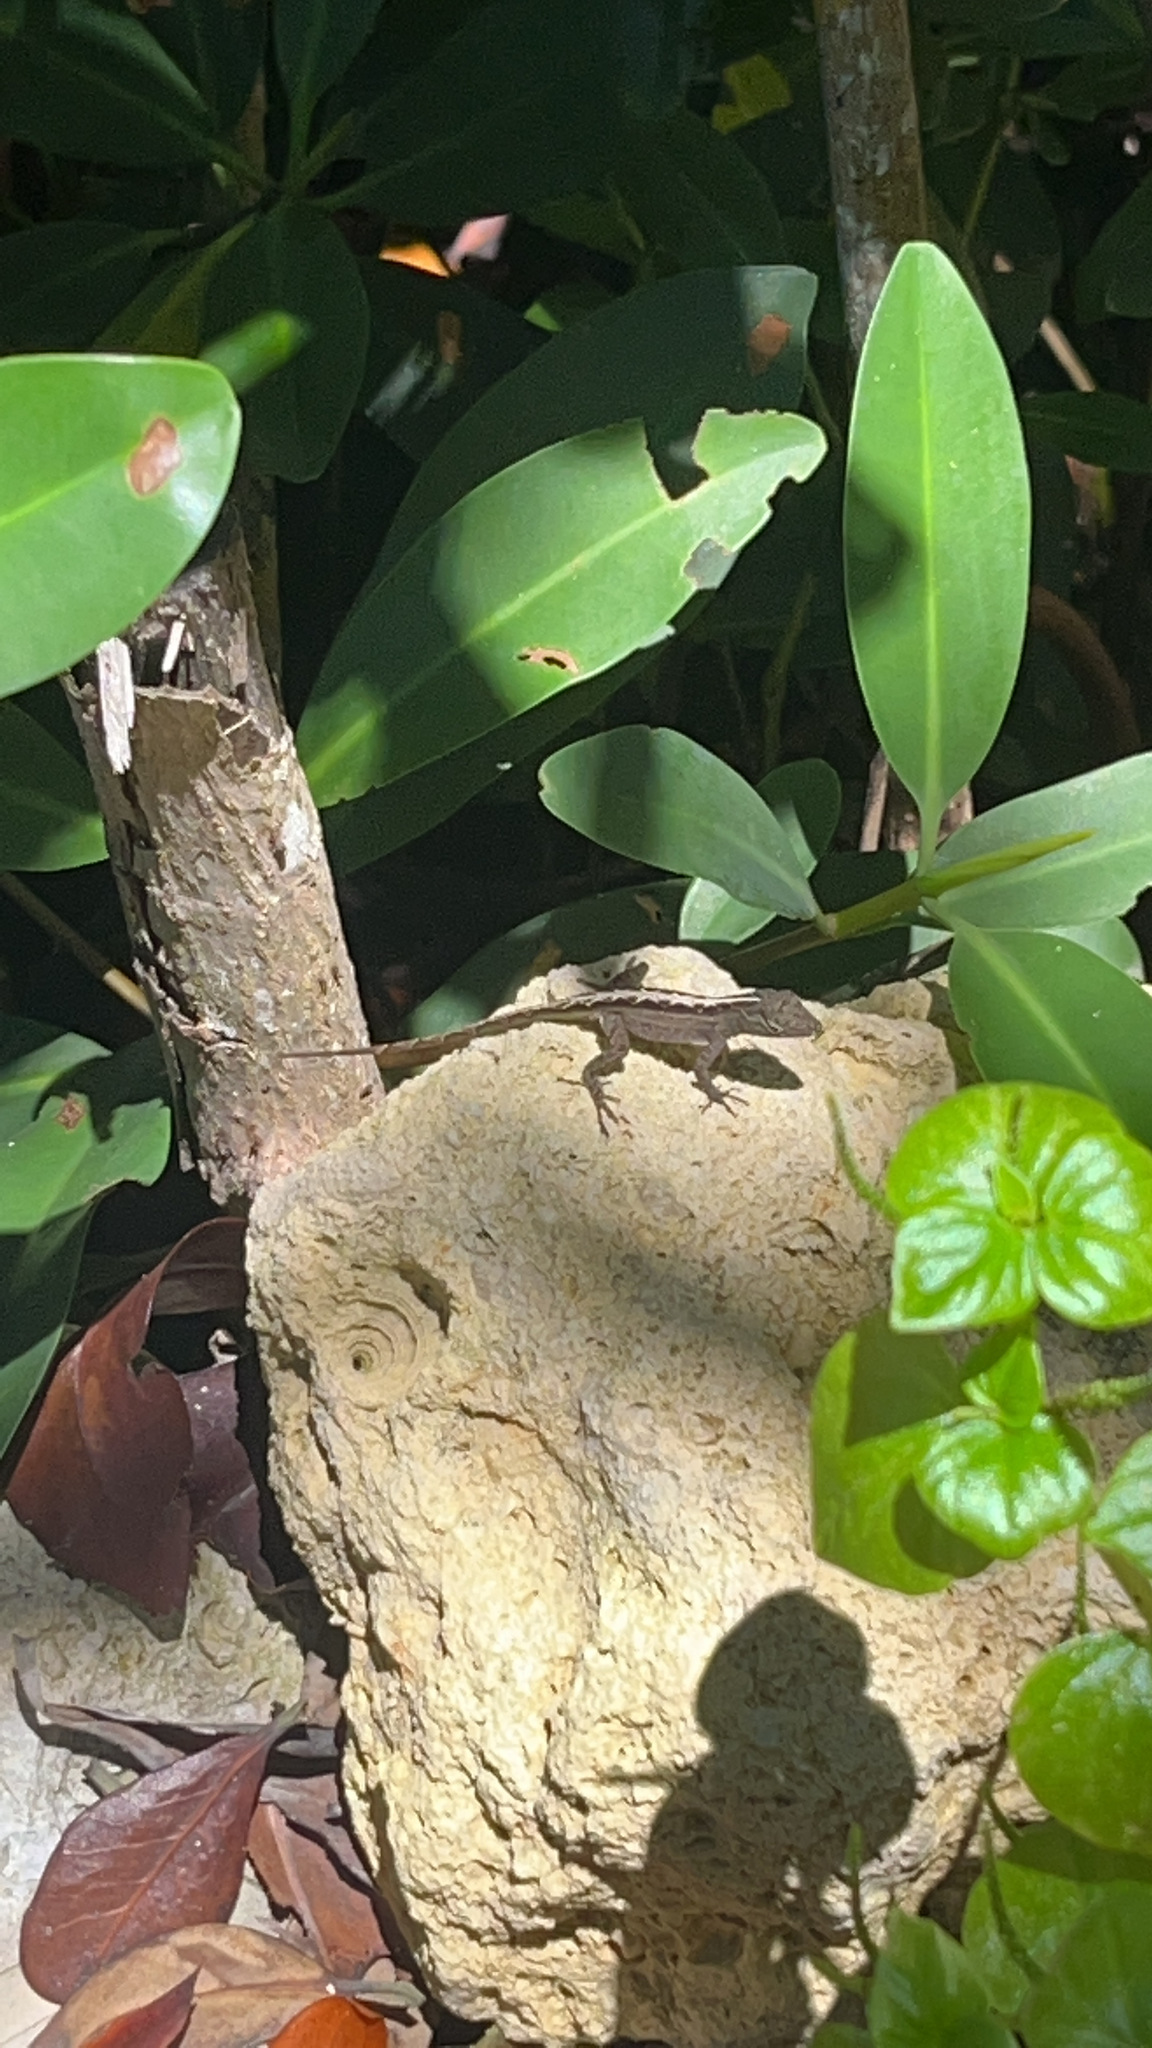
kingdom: Animalia
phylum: Chordata
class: Squamata
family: Dactyloidae
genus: Anolis
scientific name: Anolis sagrei
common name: Brown anole
